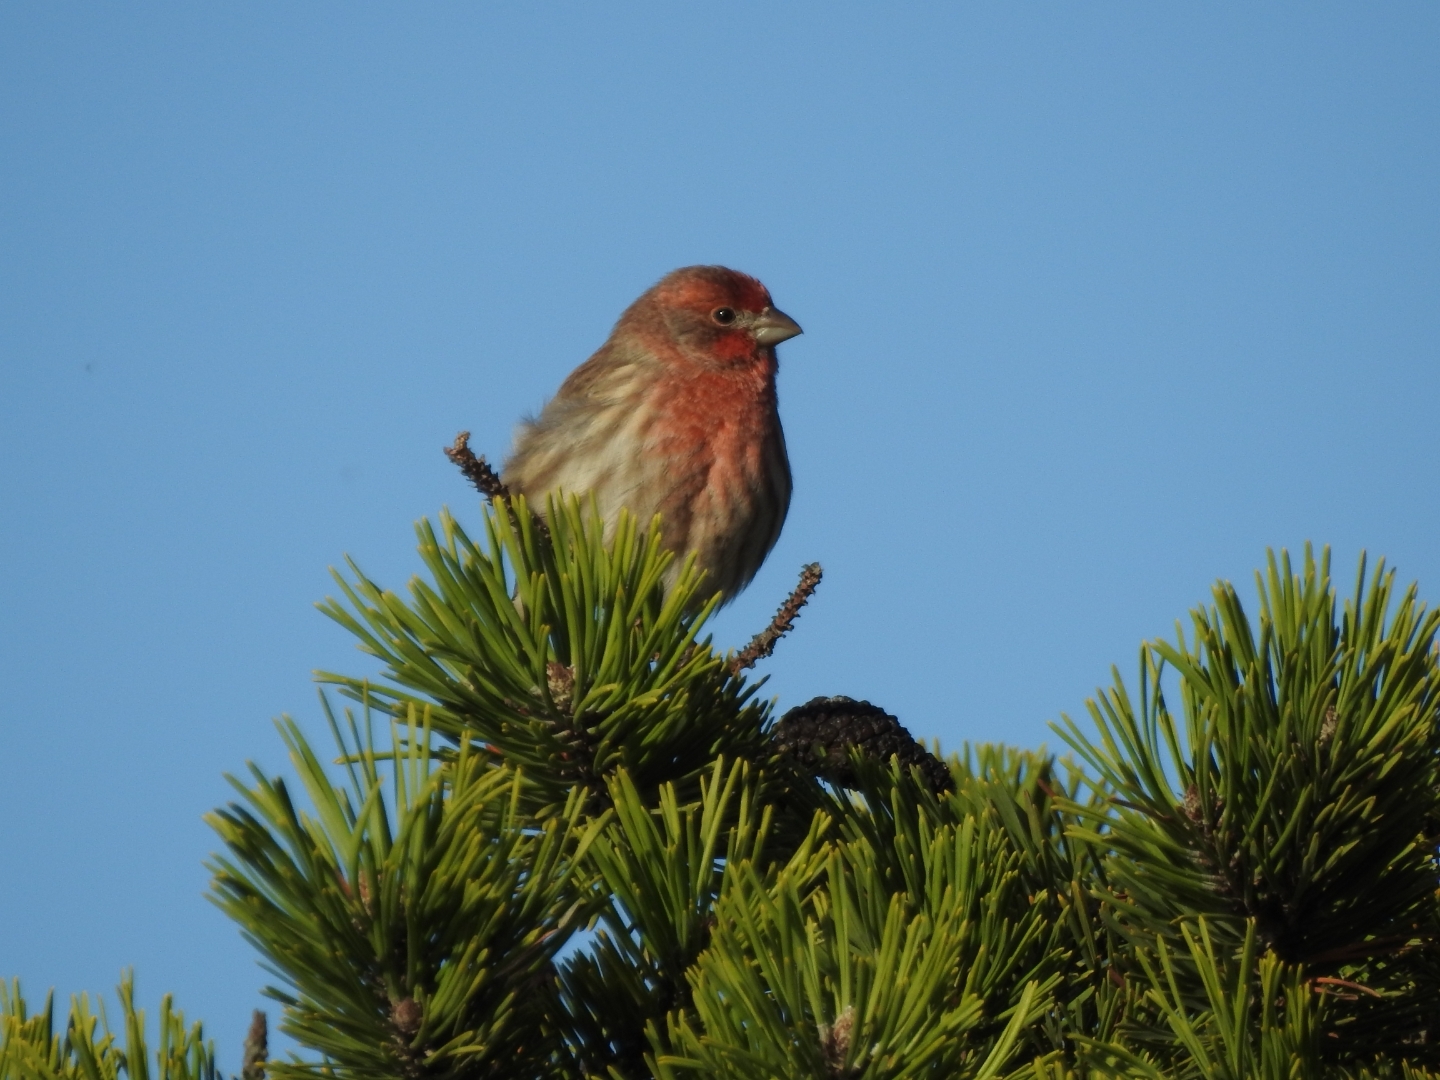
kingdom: Animalia
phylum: Chordata
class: Aves
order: Passeriformes
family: Fringillidae
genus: Haemorhous
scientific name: Haemorhous mexicanus
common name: House finch
